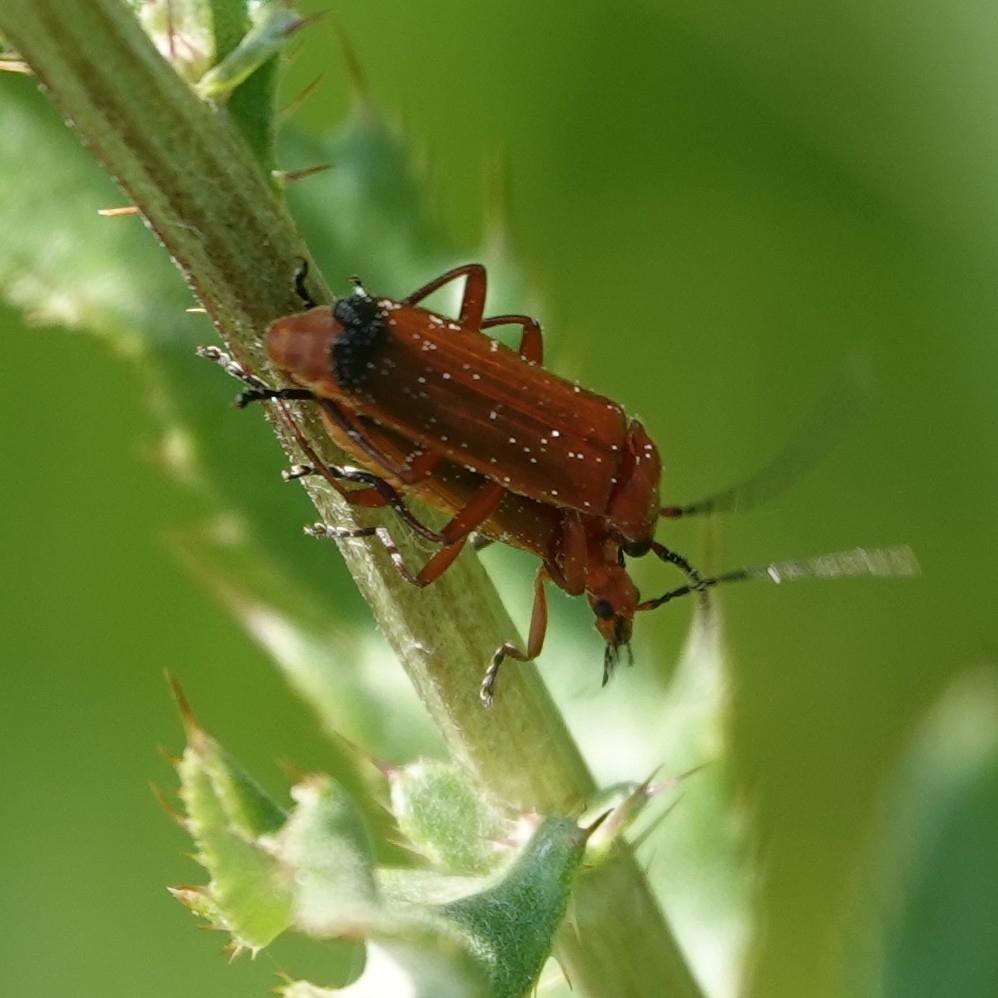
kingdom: Animalia
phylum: Arthropoda
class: Insecta
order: Coleoptera
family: Cantharidae
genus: Rhagonycha
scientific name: Rhagonycha fulva
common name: Common red soldier beetle
